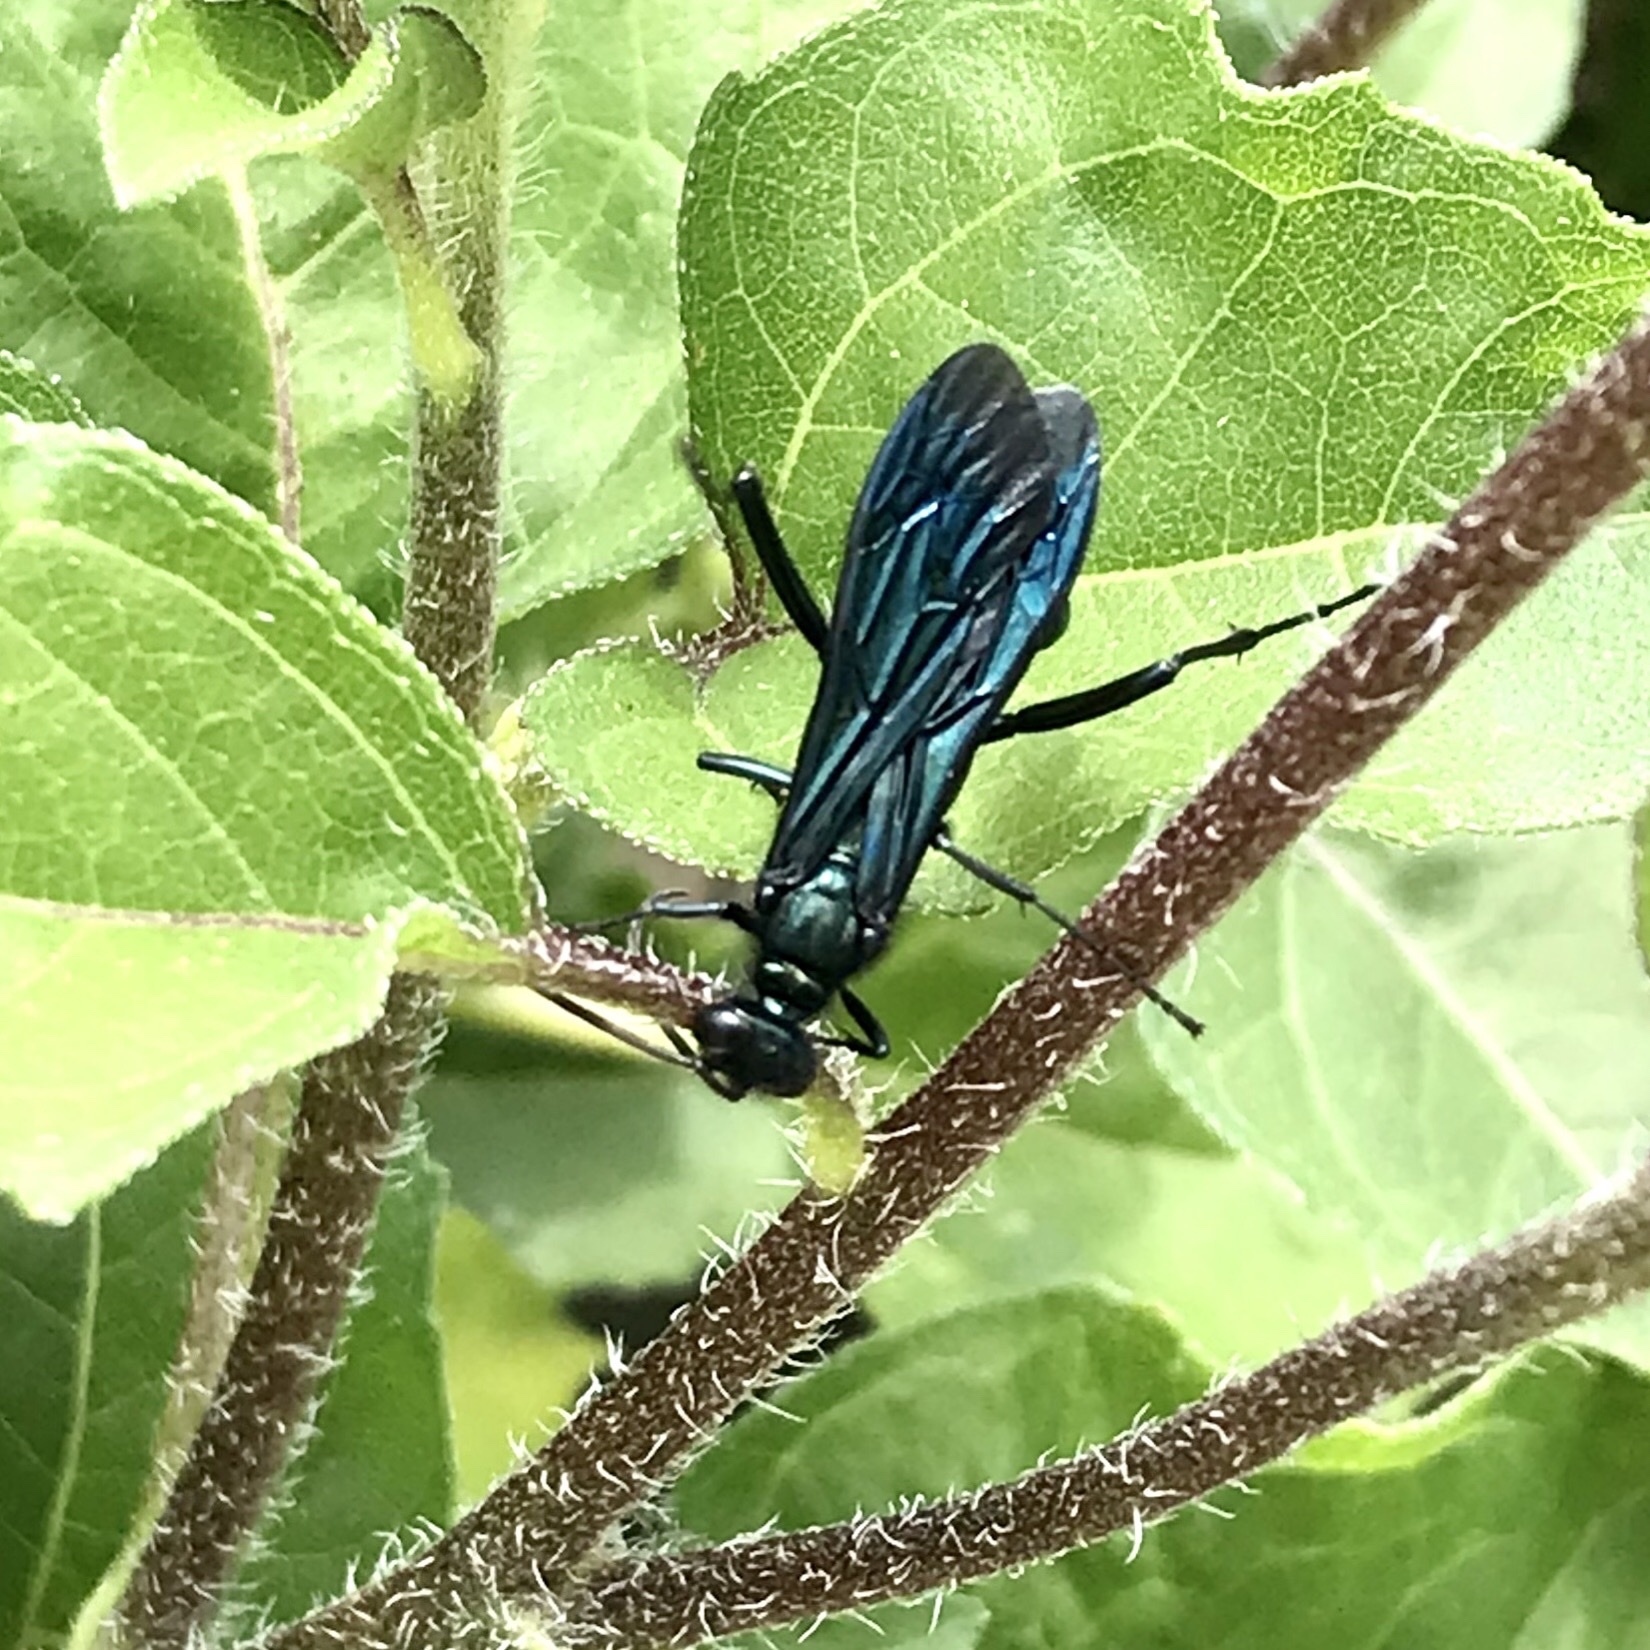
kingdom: Animalia
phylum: Arthropoda
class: Insecta
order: Hymenoptera
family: Sphecidae
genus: Chalybion
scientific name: Chalybion californicum
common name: Mud dauber
